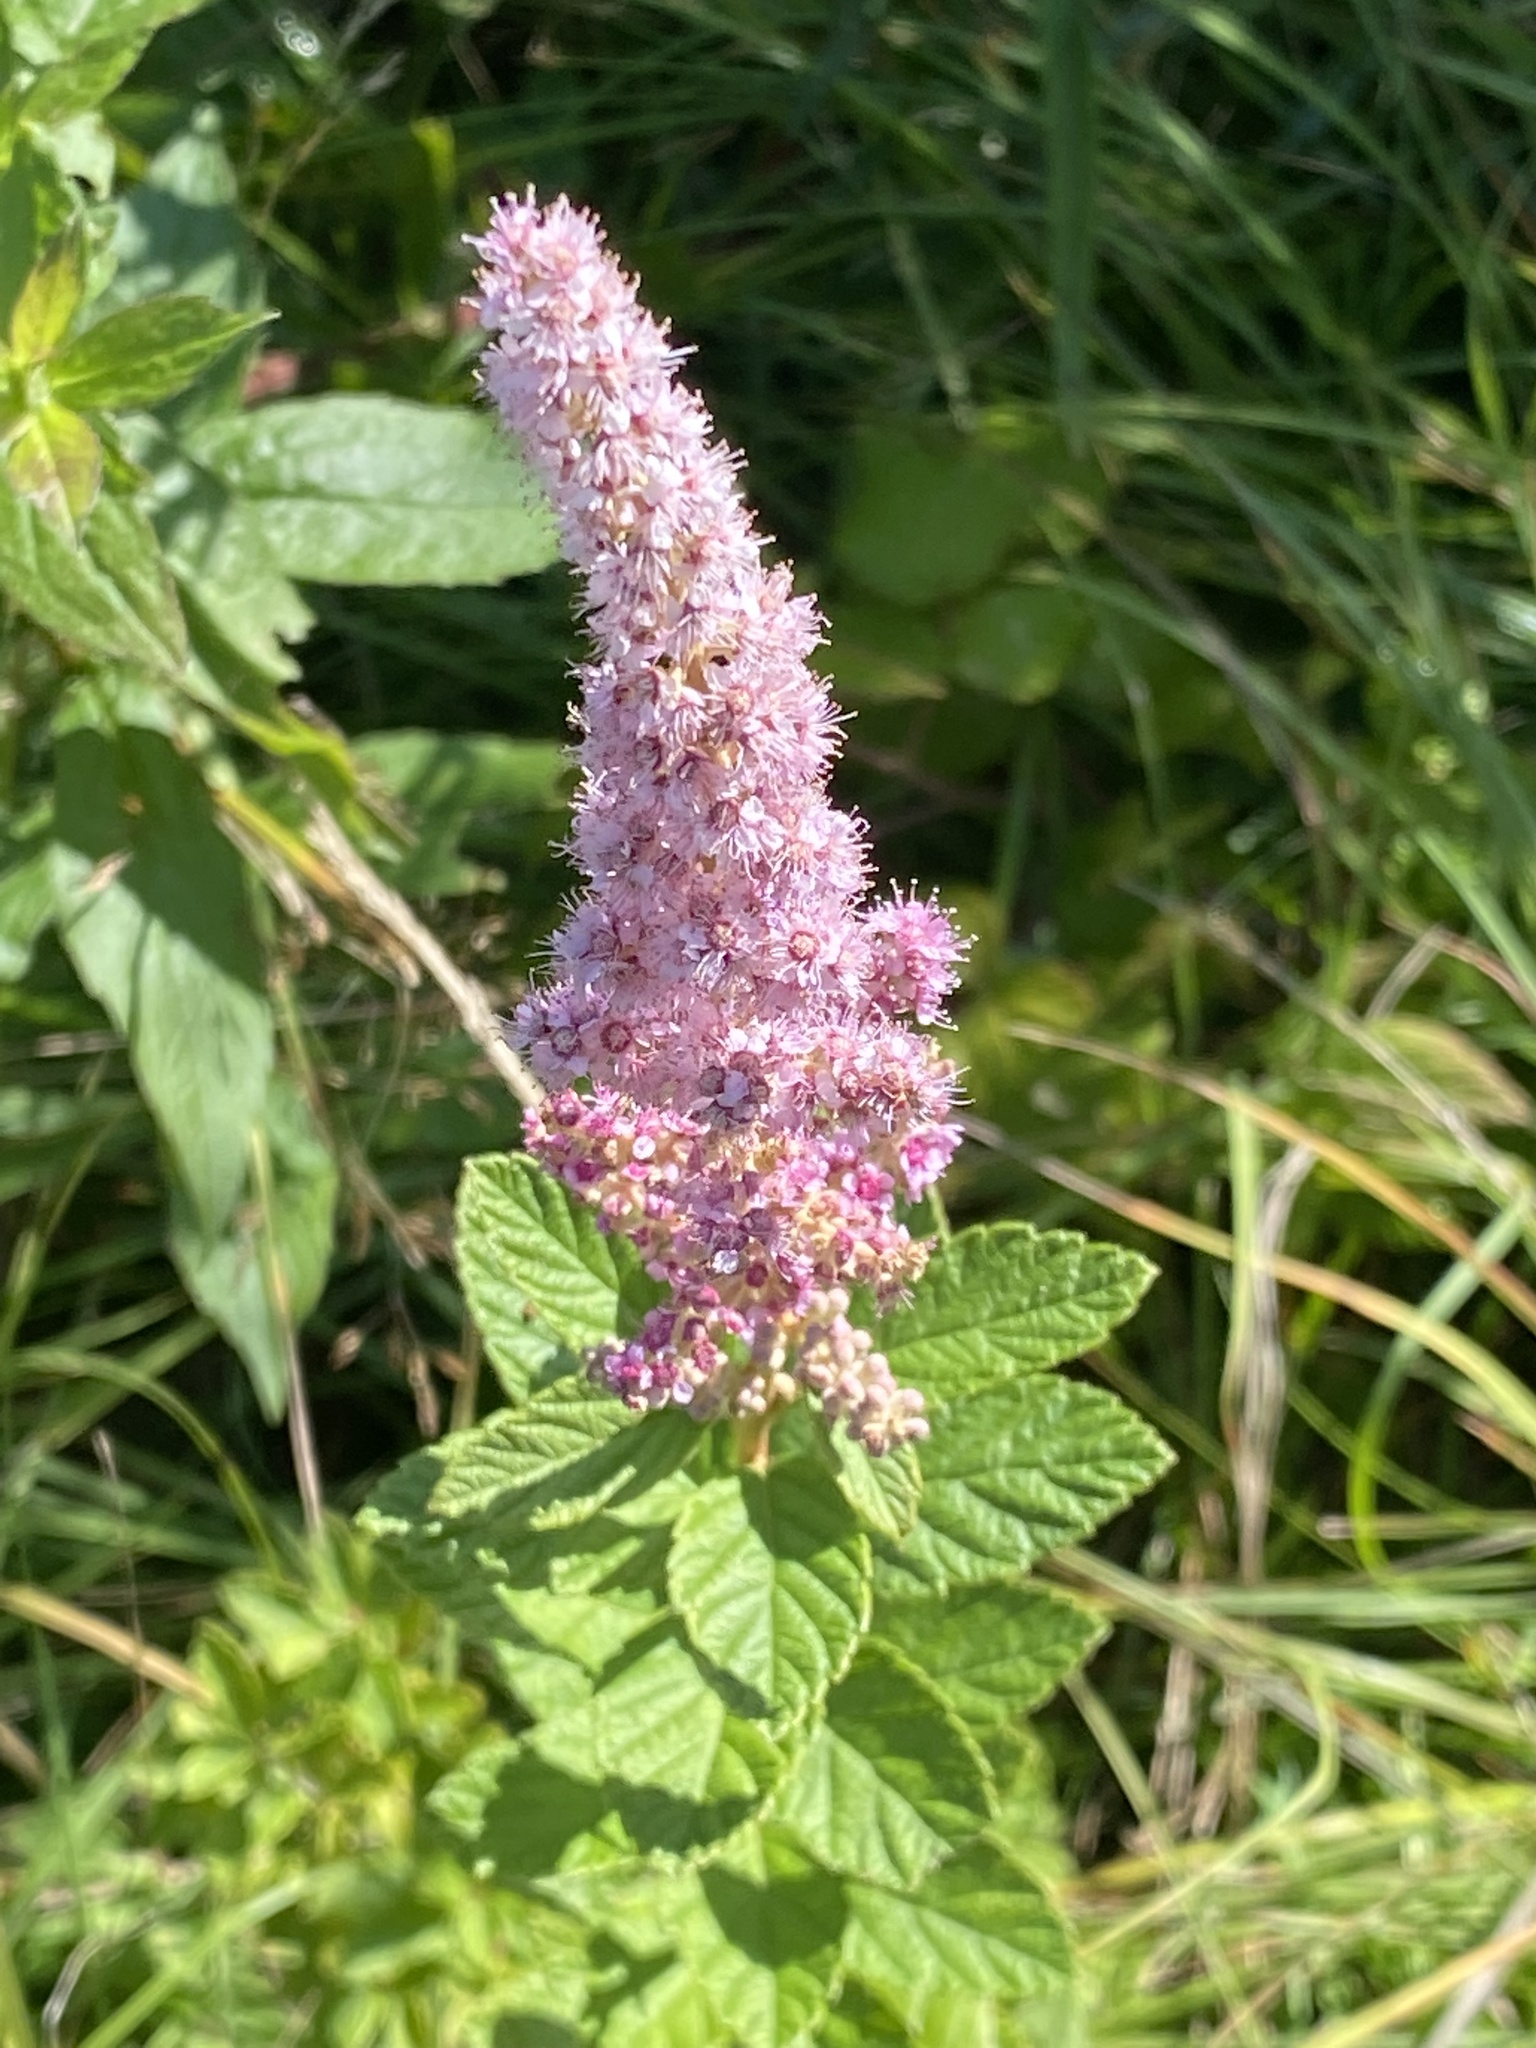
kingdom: Plantae
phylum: Tracheophyta
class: Magnoliopsida
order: Rosales
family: Rosaceae
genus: Spiraea
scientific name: Spiraea tomentosa
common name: Hardhack
